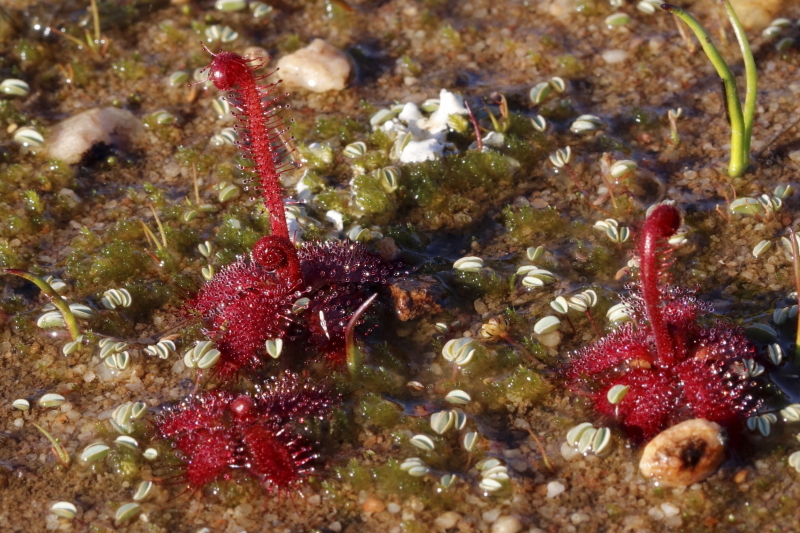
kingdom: Plantae
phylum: Tracheophyta
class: Magnoliopsida
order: Caryophyllales
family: Droseraceae
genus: Drosera
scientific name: Drosera alba
